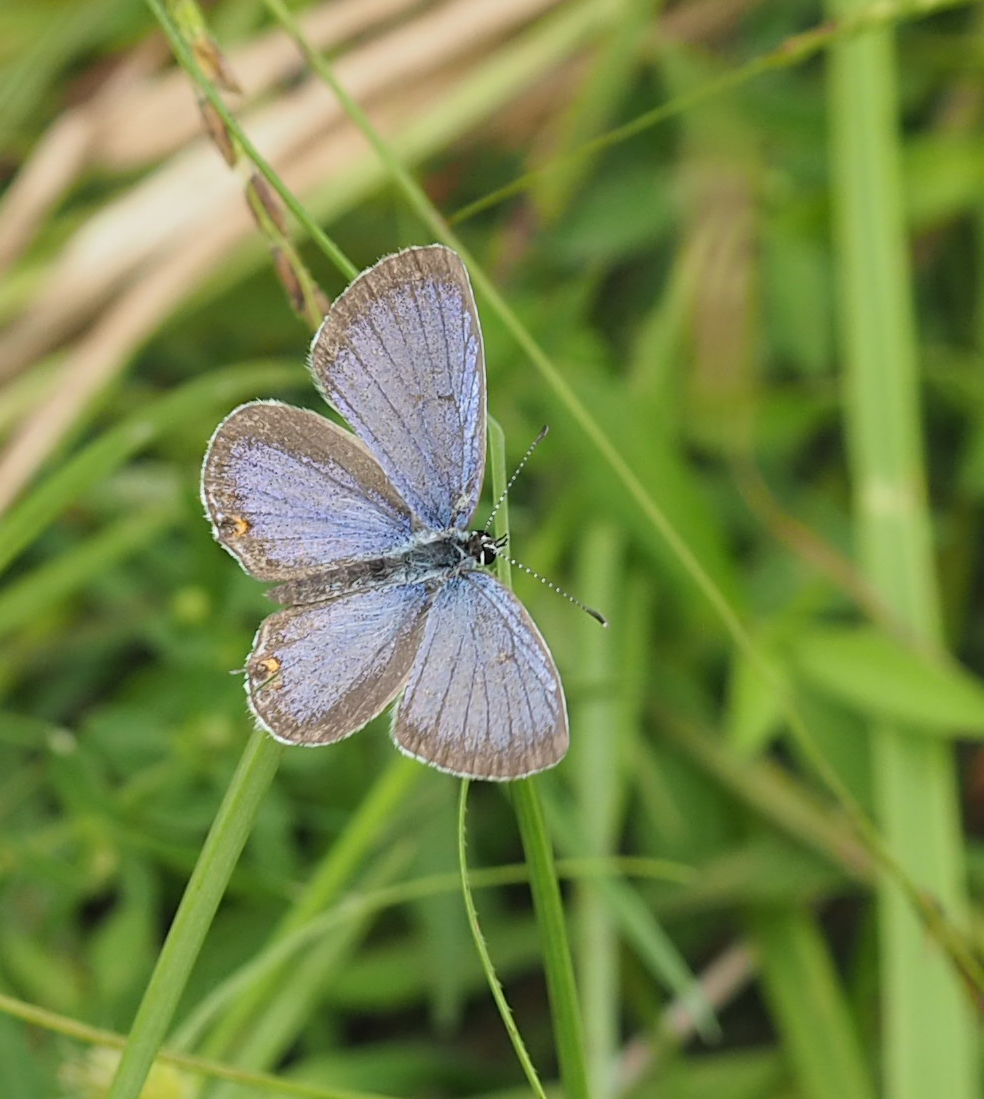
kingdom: Animalia
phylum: Arthropoda
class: Insecta
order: Lepidoptera
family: Lycaenidae
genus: Elkalyce
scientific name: Elkalyce comyntas
